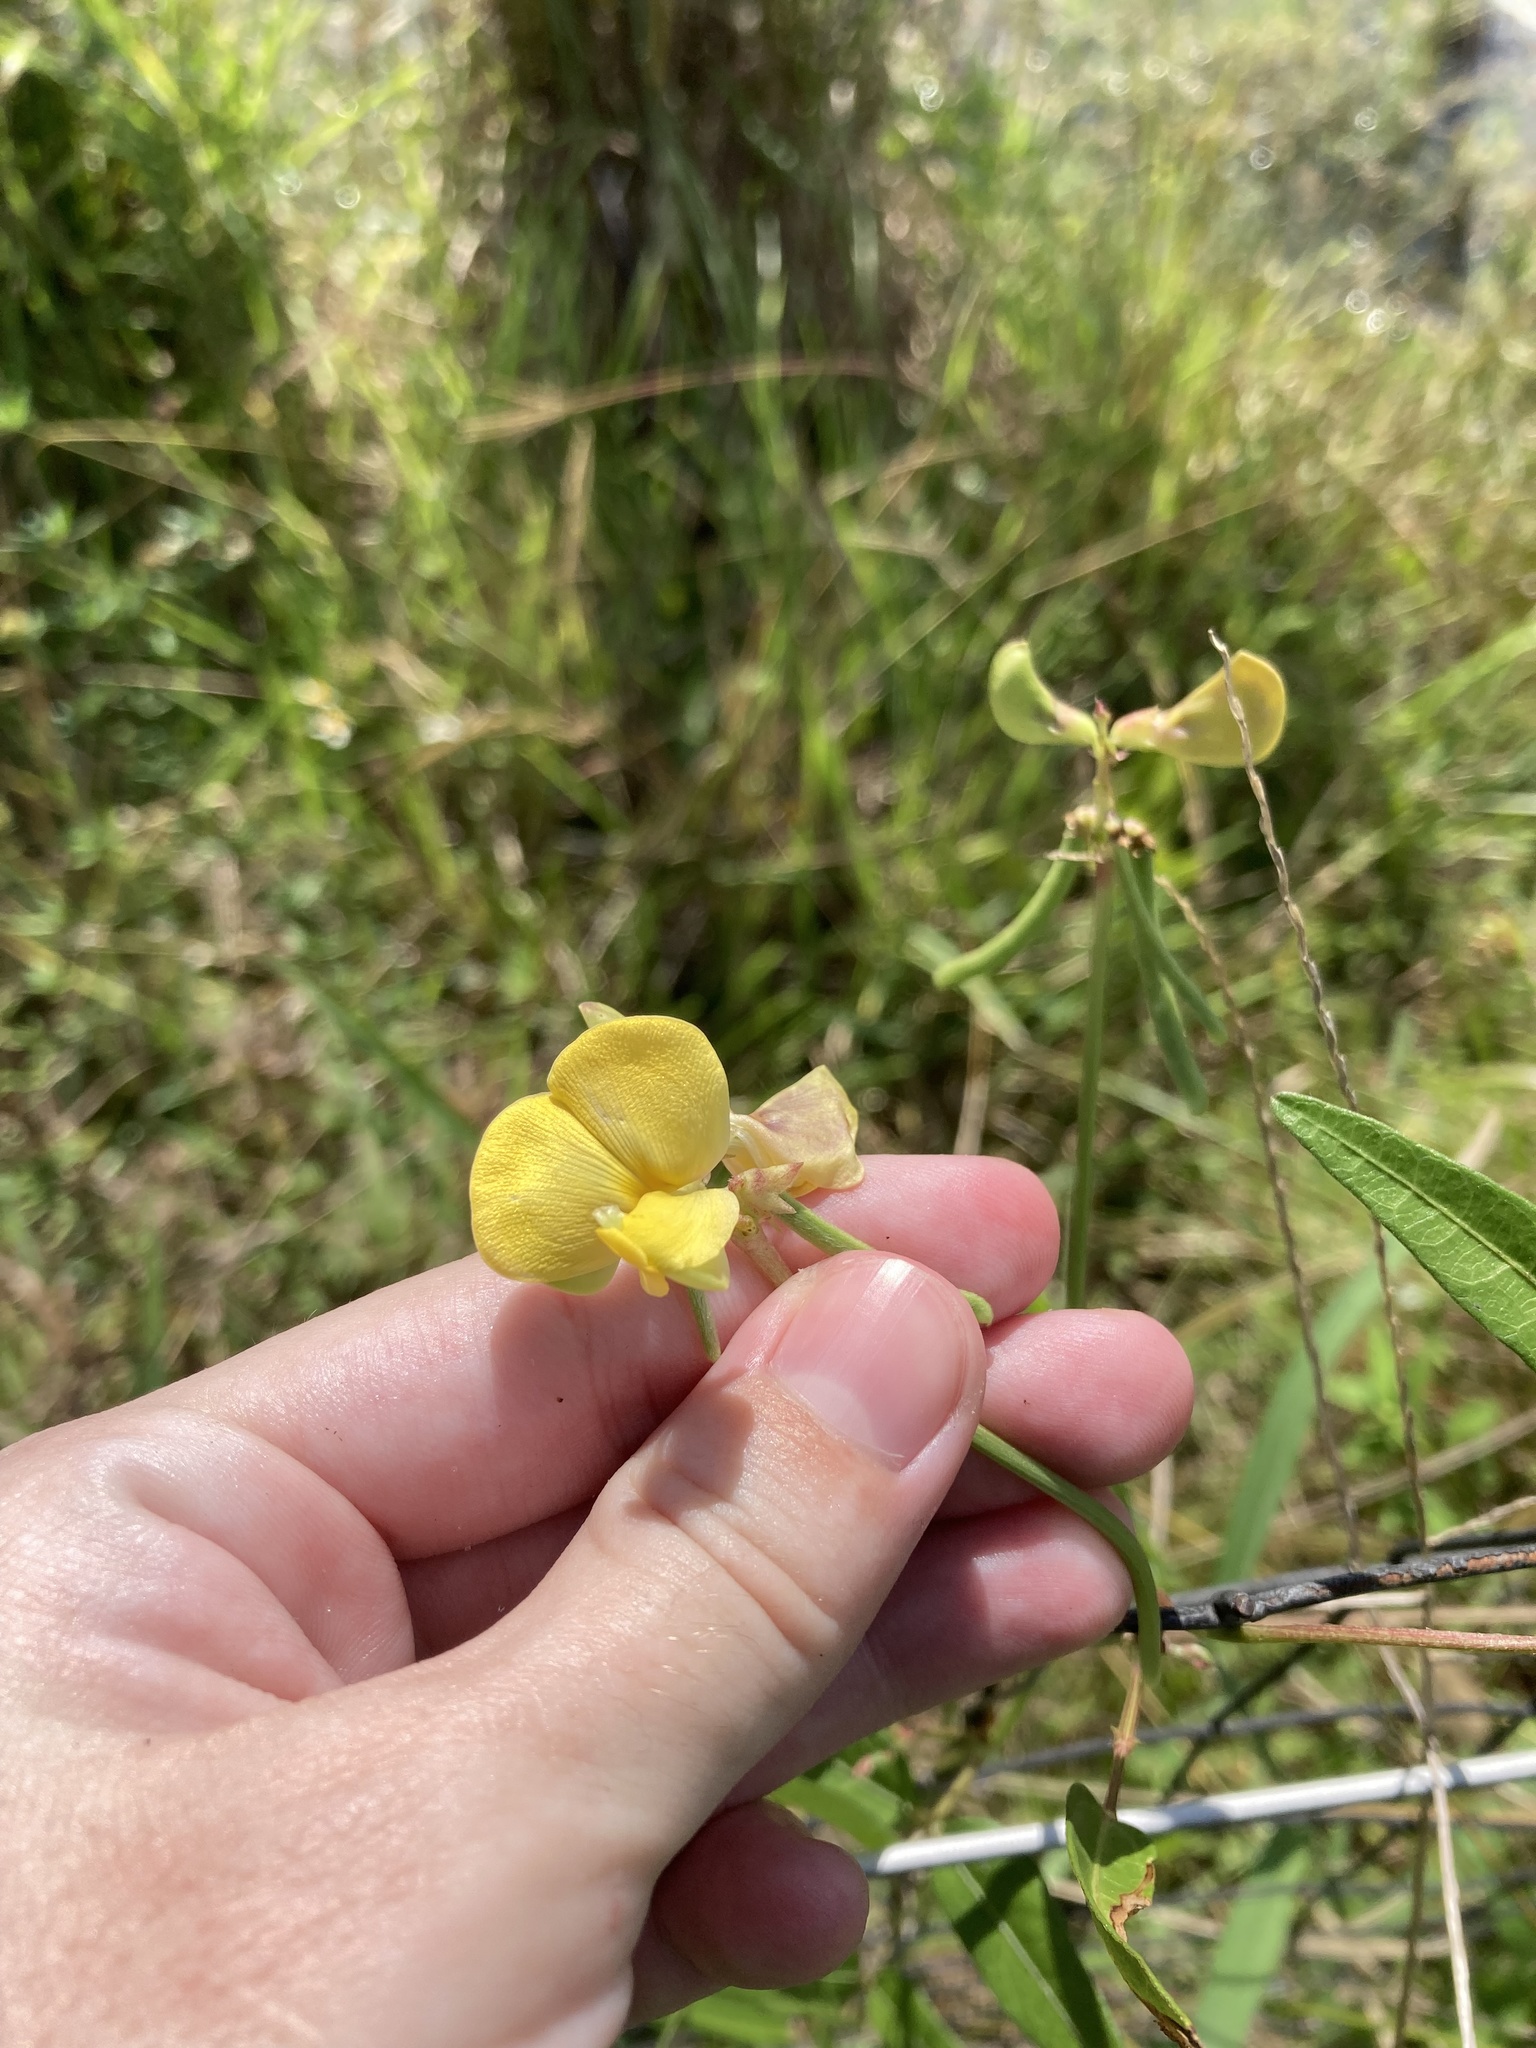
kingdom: Plantae
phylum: Tracheophyta
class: Magnoliopsida
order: Fabales
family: Fabaceae
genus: Vigna
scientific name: Vigna luteola
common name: Hairypod cowpea
